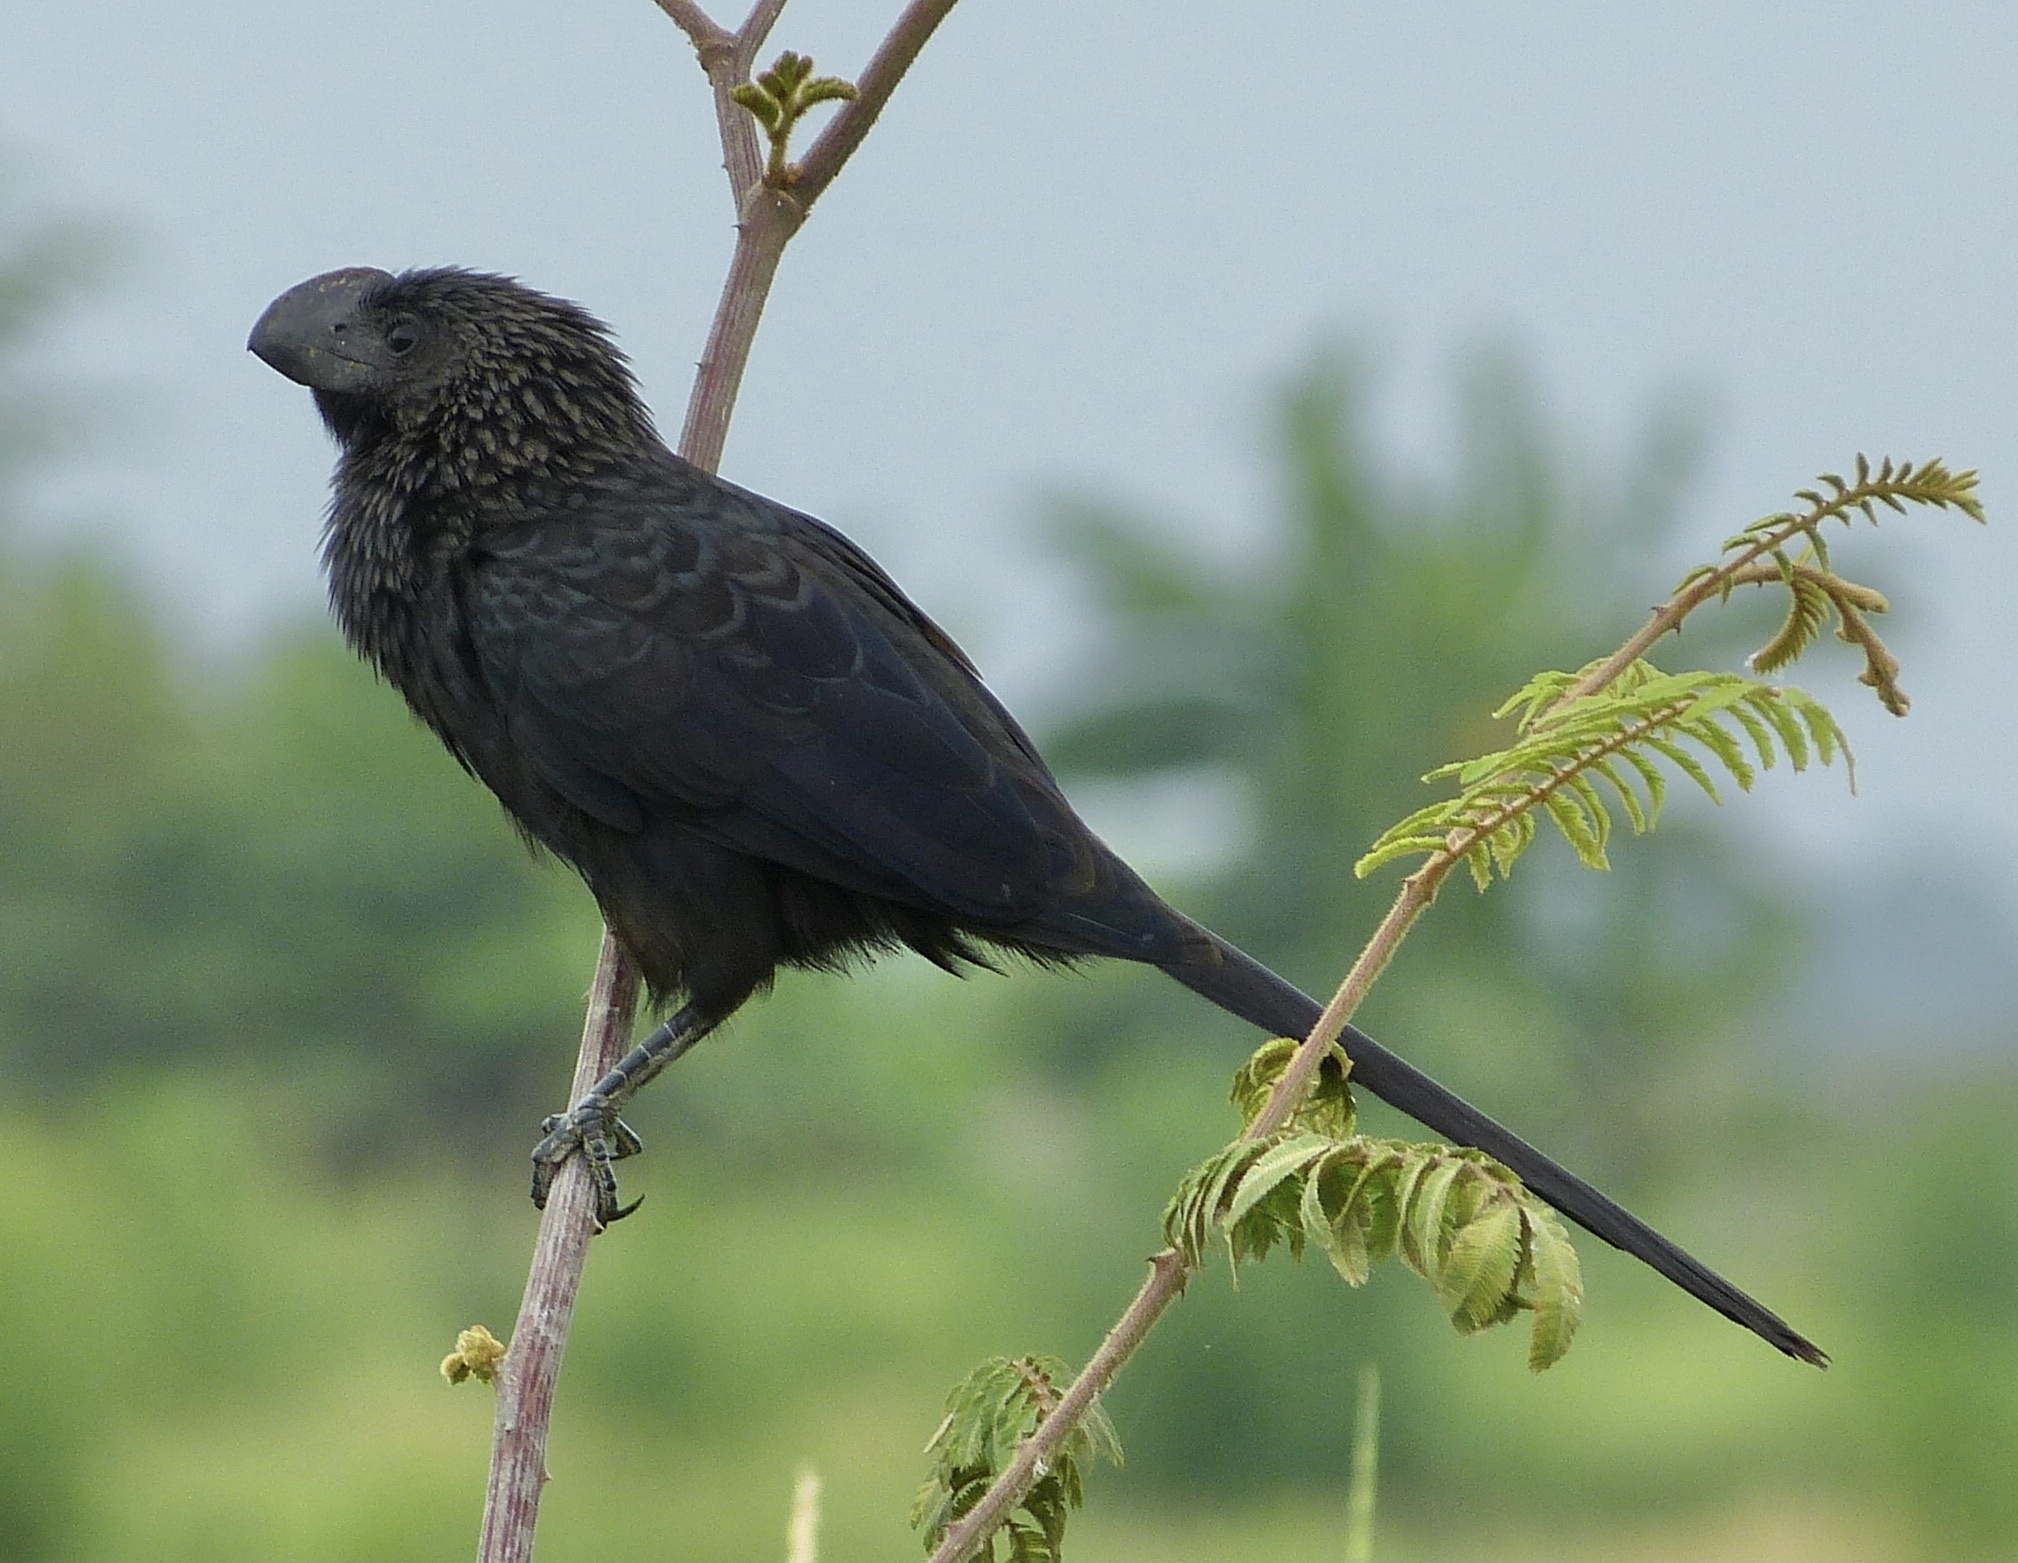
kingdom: Animalia
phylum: Chordata
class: Aves
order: Cuculiformes
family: Cuculidae
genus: Crotophaga
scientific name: Crotophaga ani
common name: Smooth-billed ani
